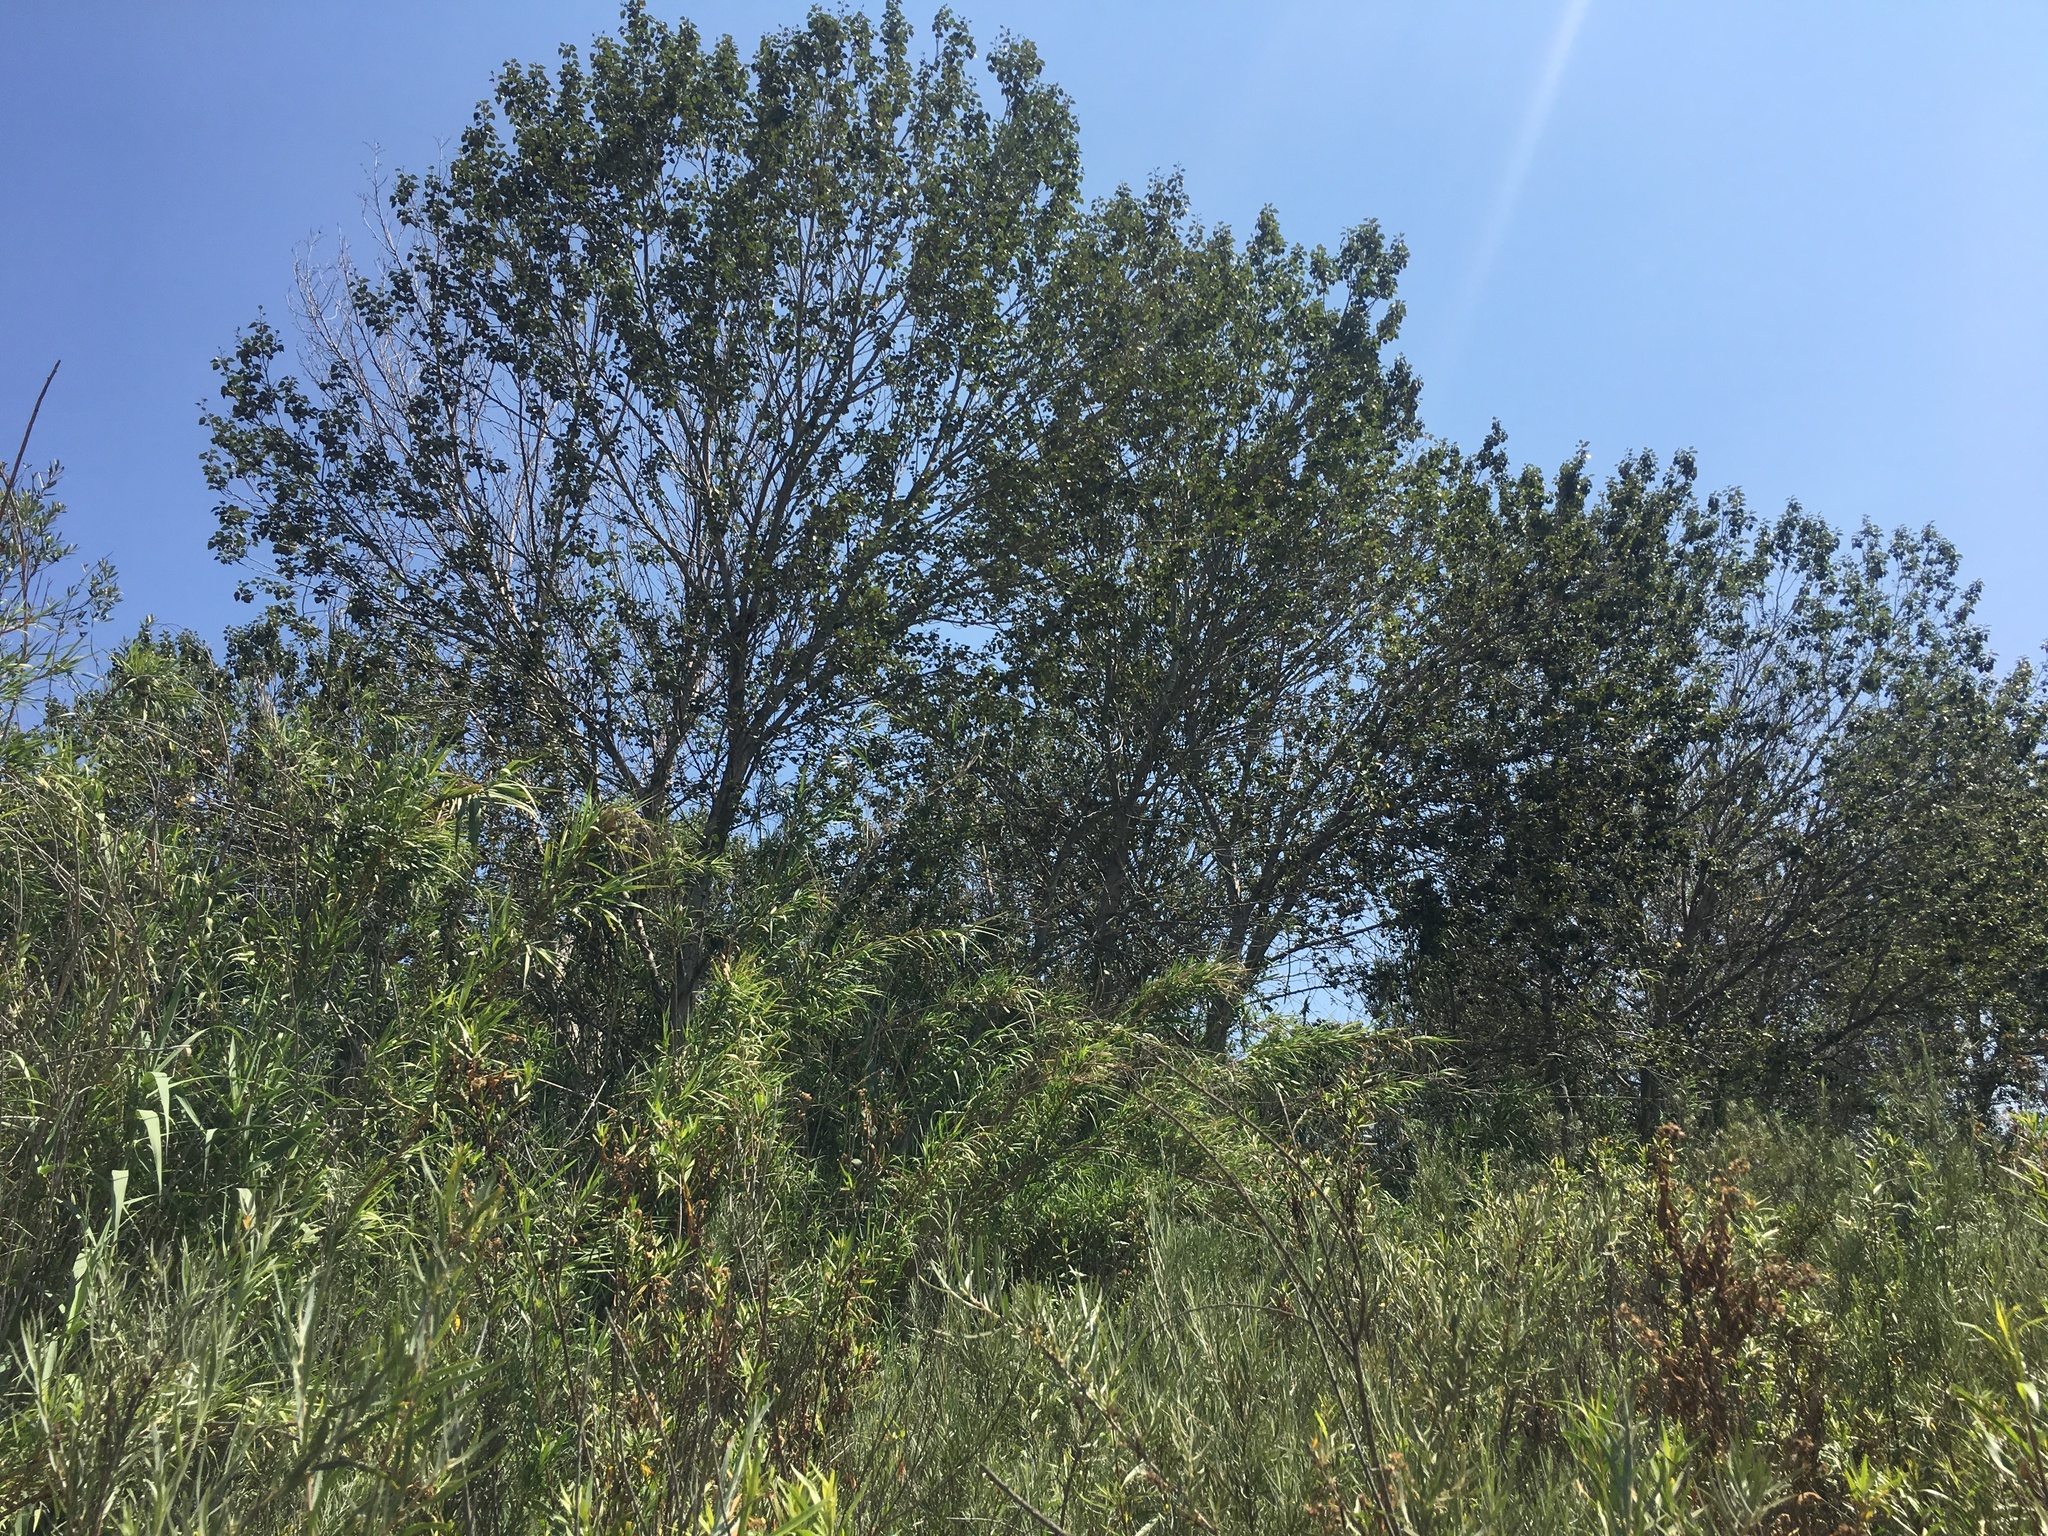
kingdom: Plantae
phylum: Tracheophyta
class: Magnoliopsida
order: Malpighiales
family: Salicaceae
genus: Populus
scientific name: Populus trichocarpa
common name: Black cottonwood
